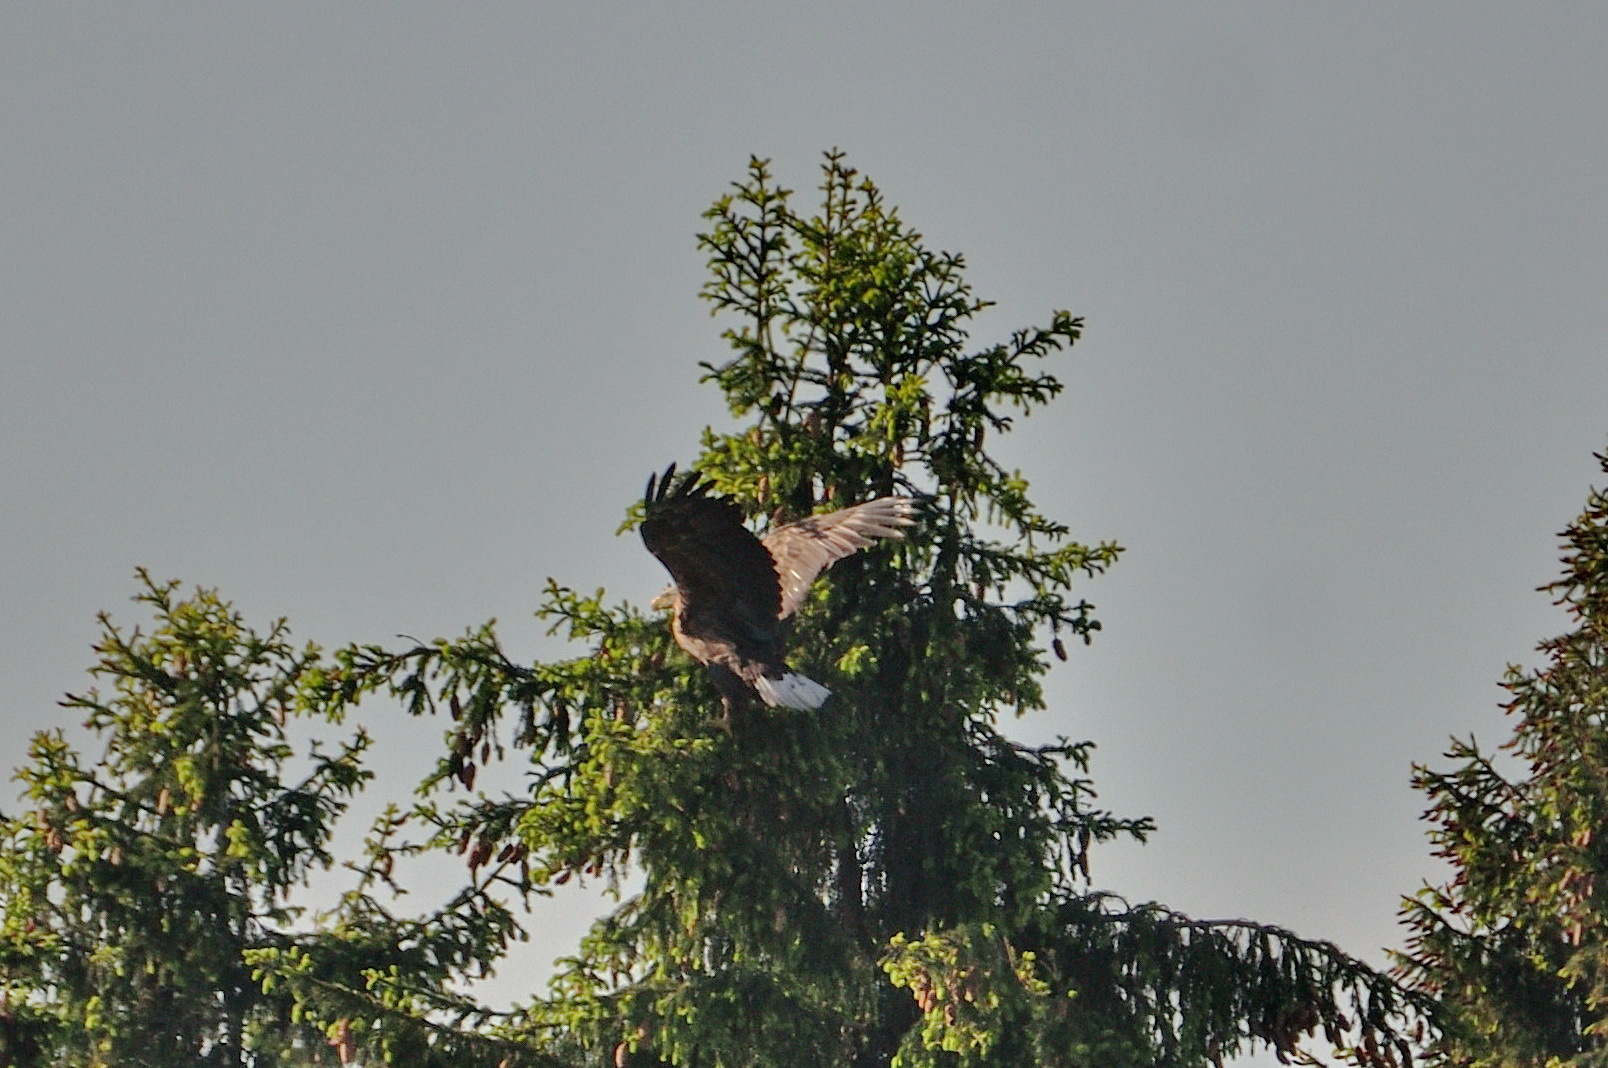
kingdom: Animalia
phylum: Chordata
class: Aves
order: Accipitriformes
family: Accipitridae
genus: Haliaeetus
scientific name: Haliaeetus albicilla
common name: White-tailed eagle
